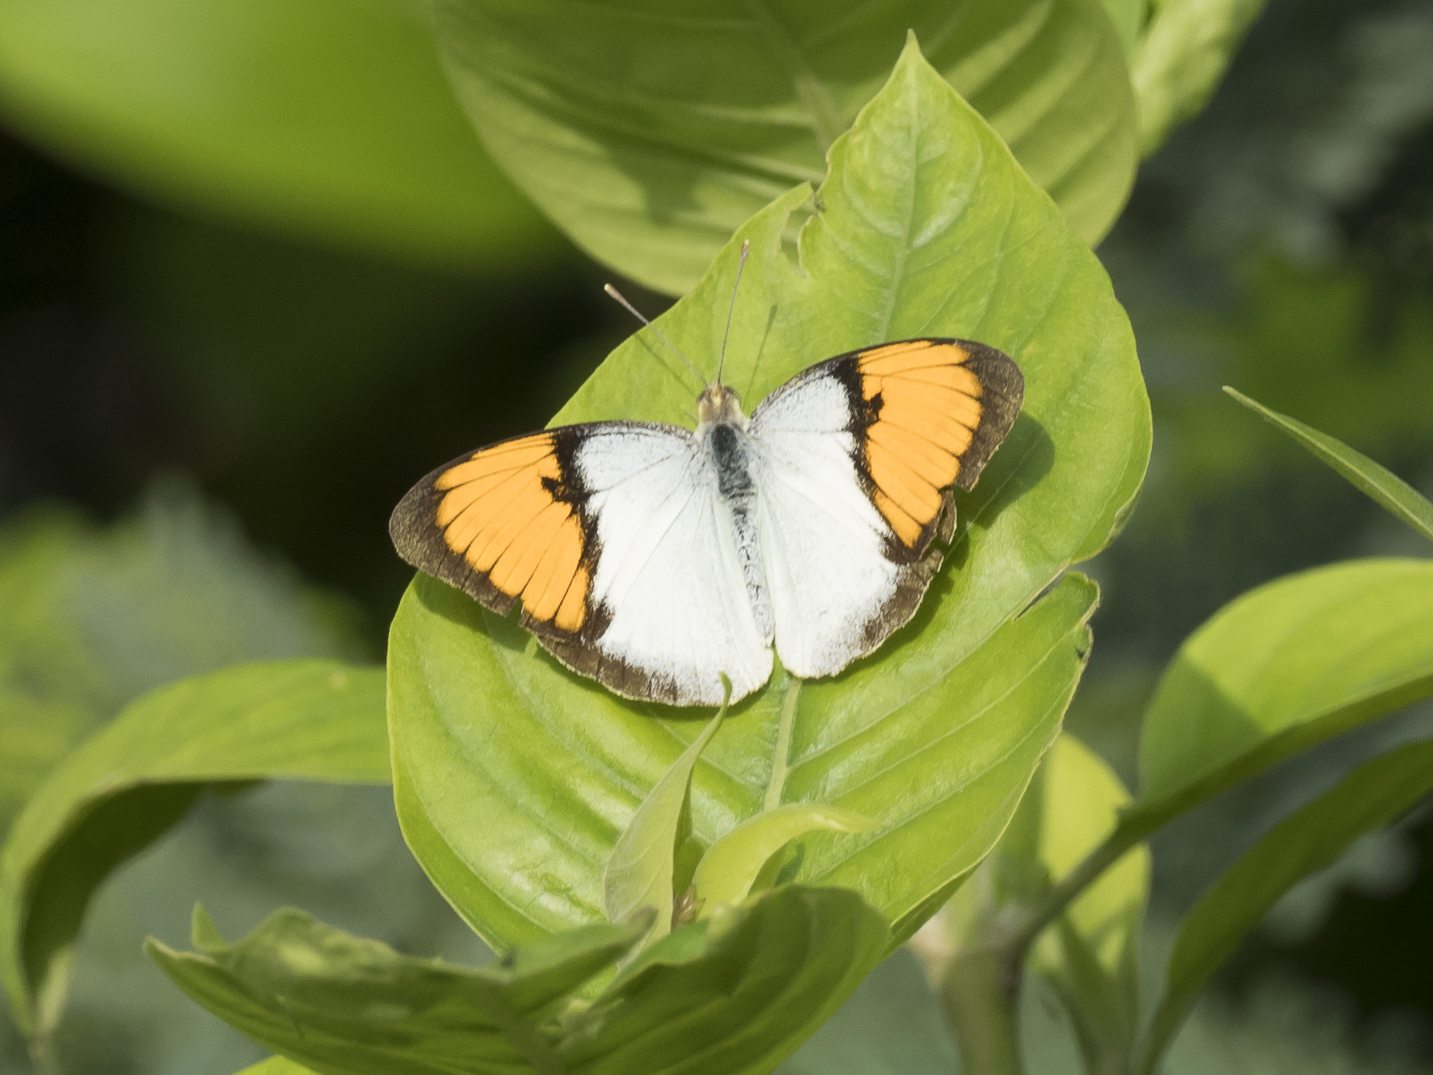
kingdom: Animalia
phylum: Arthropoda
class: Insecta
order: Lepidoptera
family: Pieridae
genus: Ixias
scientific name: Ixias marianne
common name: White orange tip
